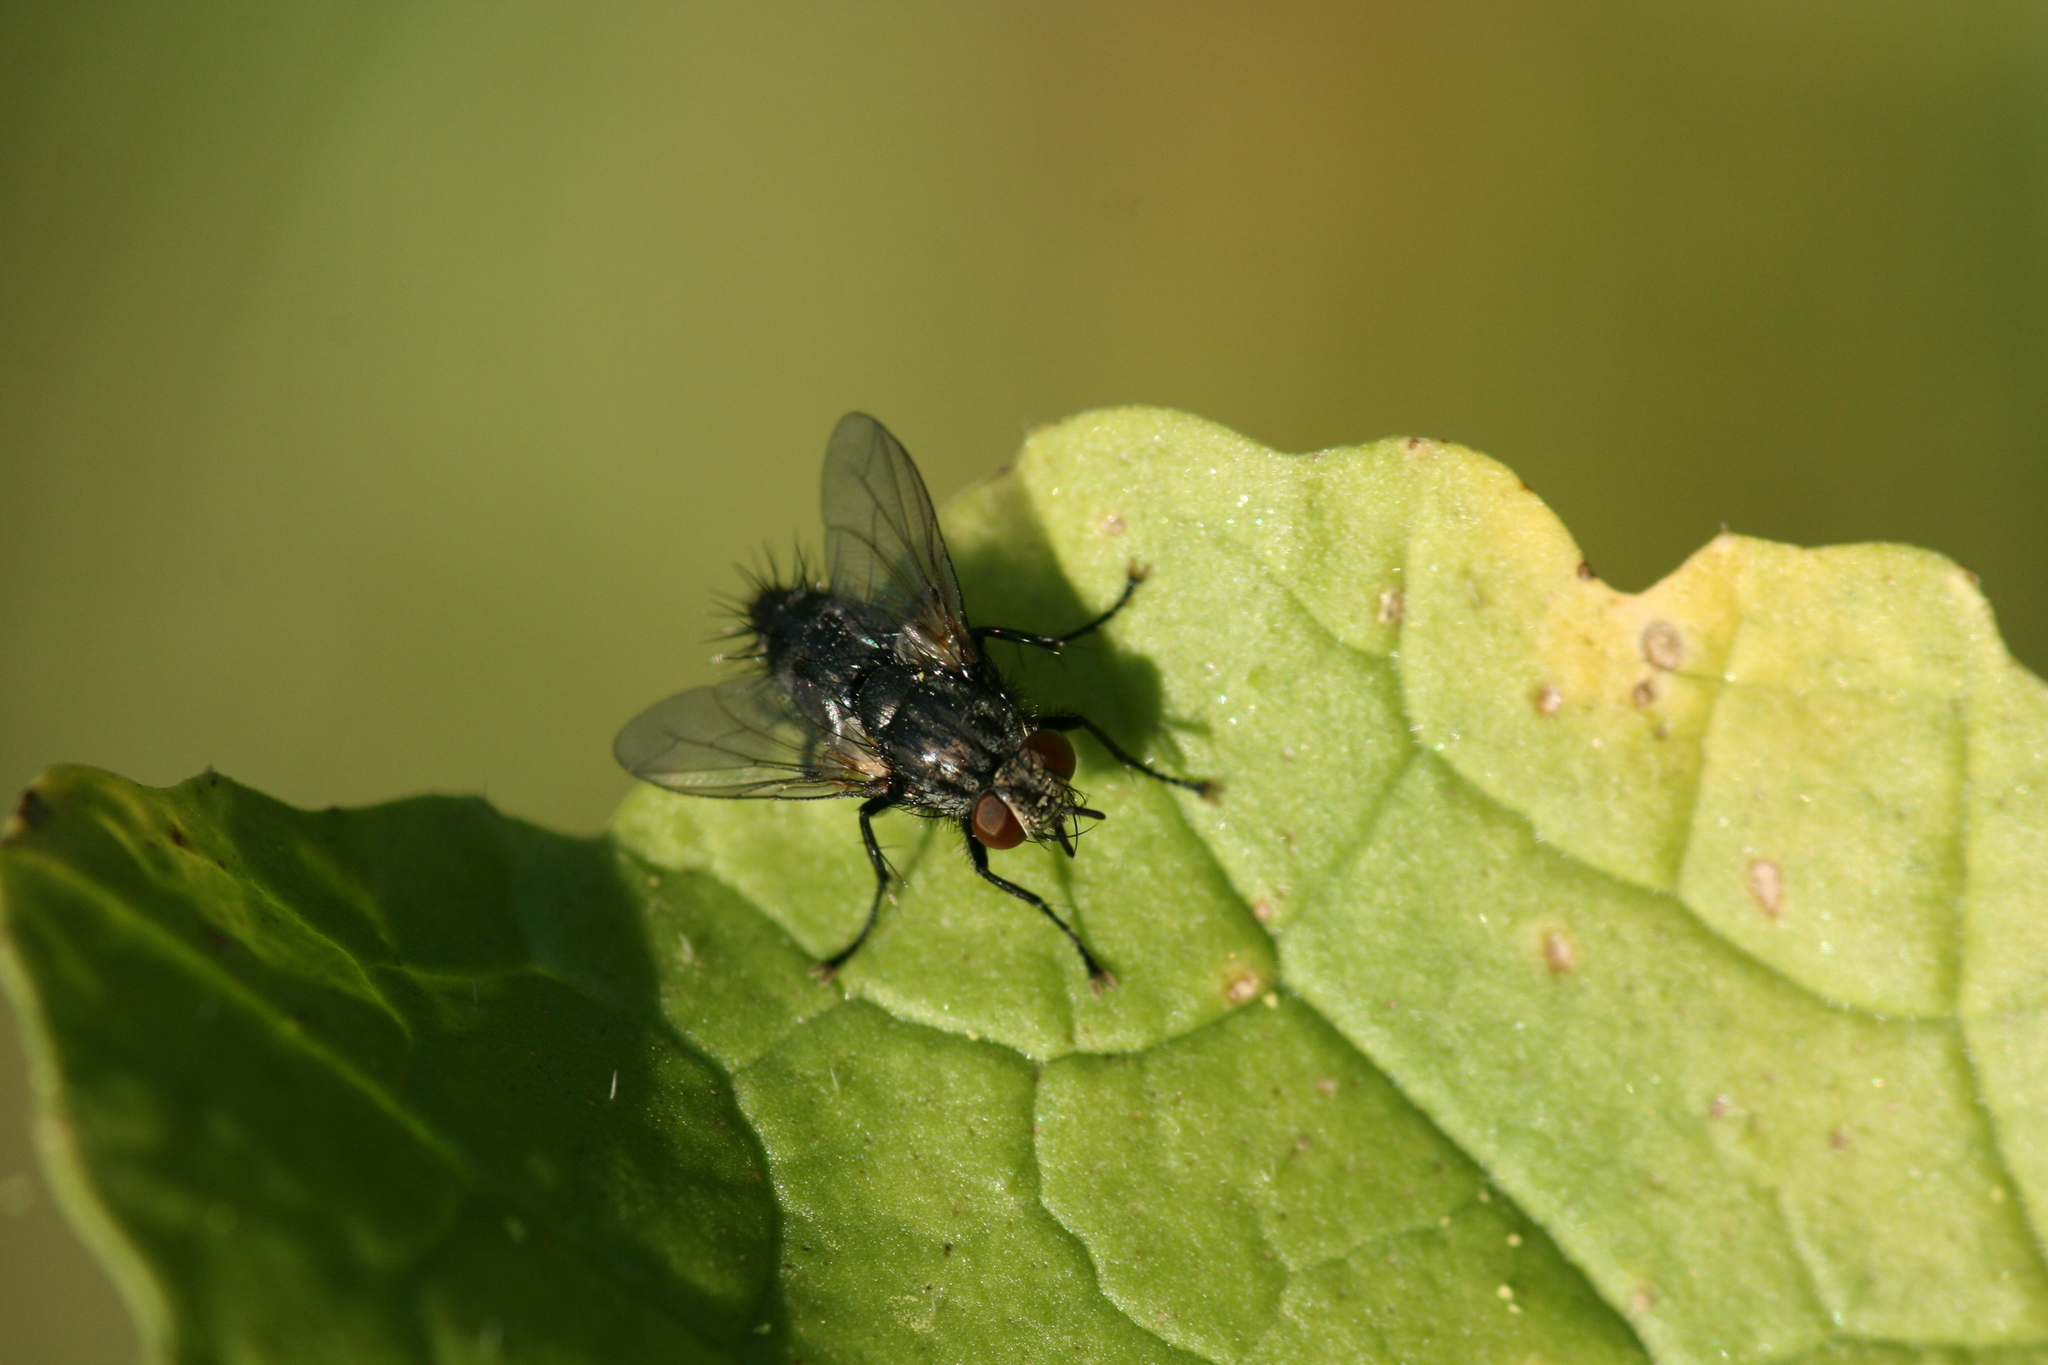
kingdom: Animalia
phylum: Arthropoda
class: Insecta
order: Diptera
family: Tachinidae
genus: Voria
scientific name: Voria ruralis
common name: Parasitic fly
